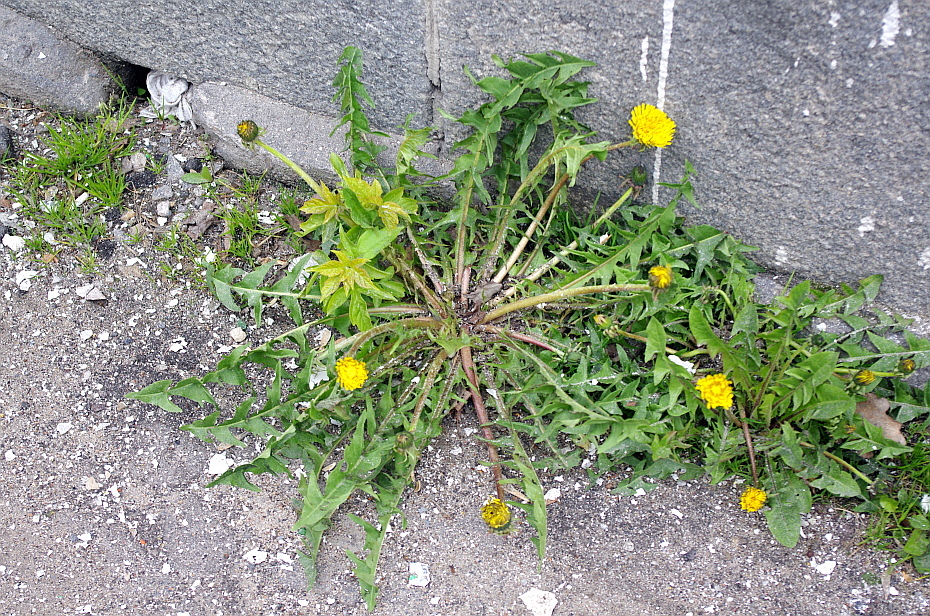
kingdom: Plantae
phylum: Tracheophyta
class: Magnoliopsida
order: Asterales
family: Asteraceae
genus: Taraxacum
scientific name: Taraxacum officinale
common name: Common dandelion
